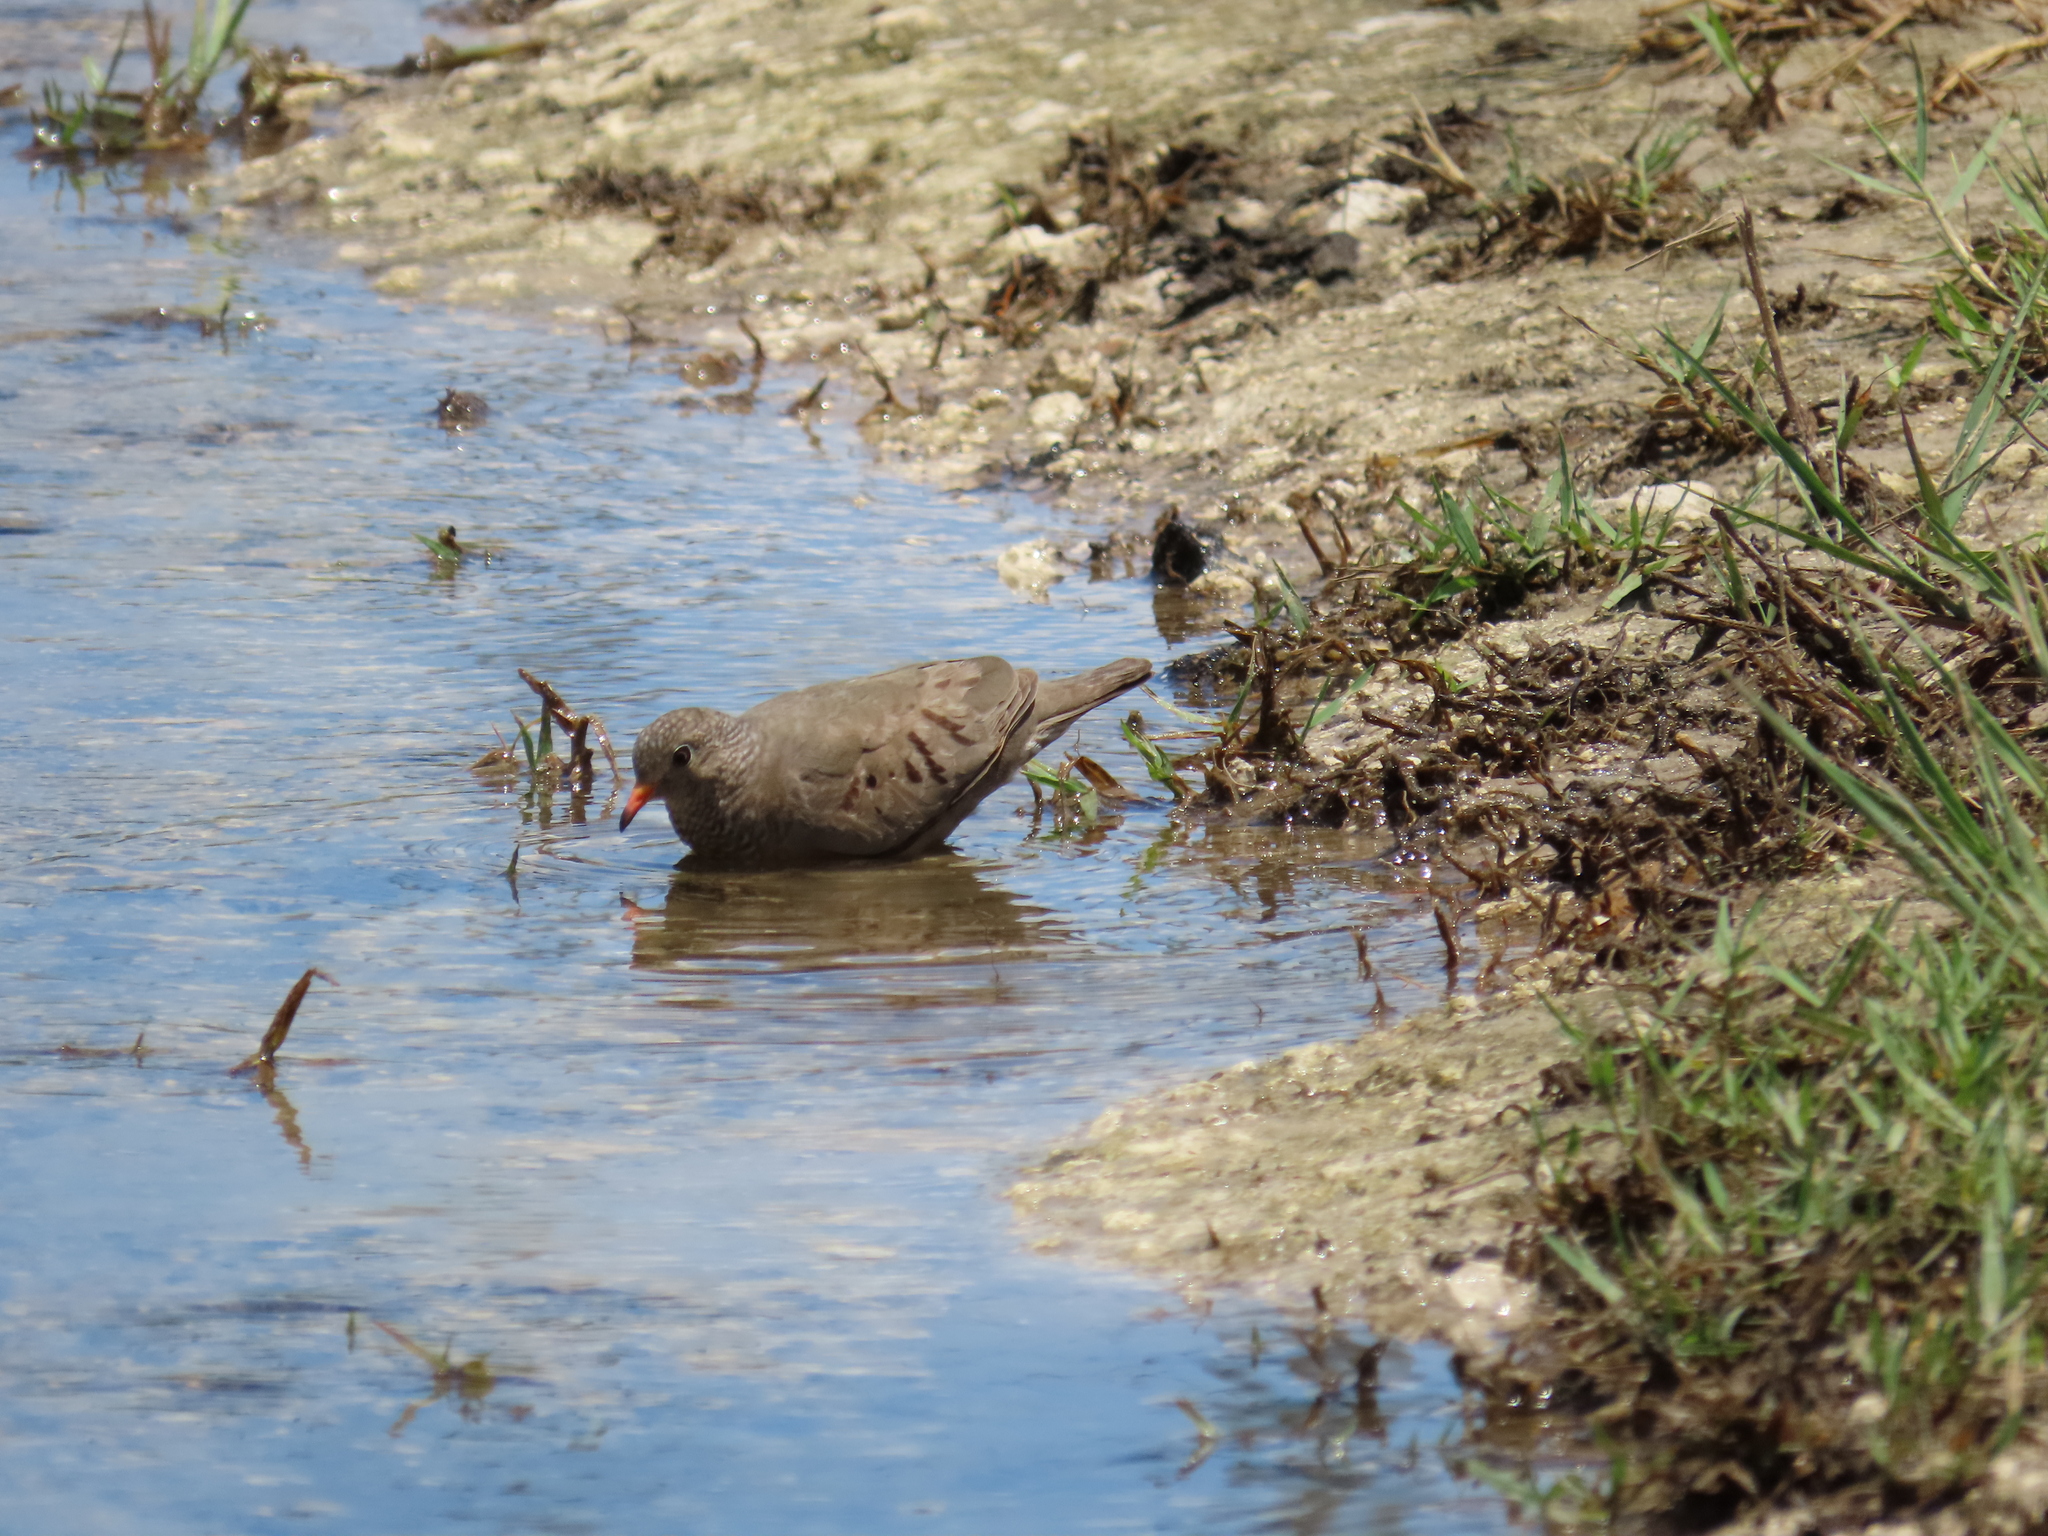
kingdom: Animalia
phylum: Chordata
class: Aves
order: Columbiformes
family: Columbidae
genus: Columbina
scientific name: Columbina passerina
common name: Common ground-dove
